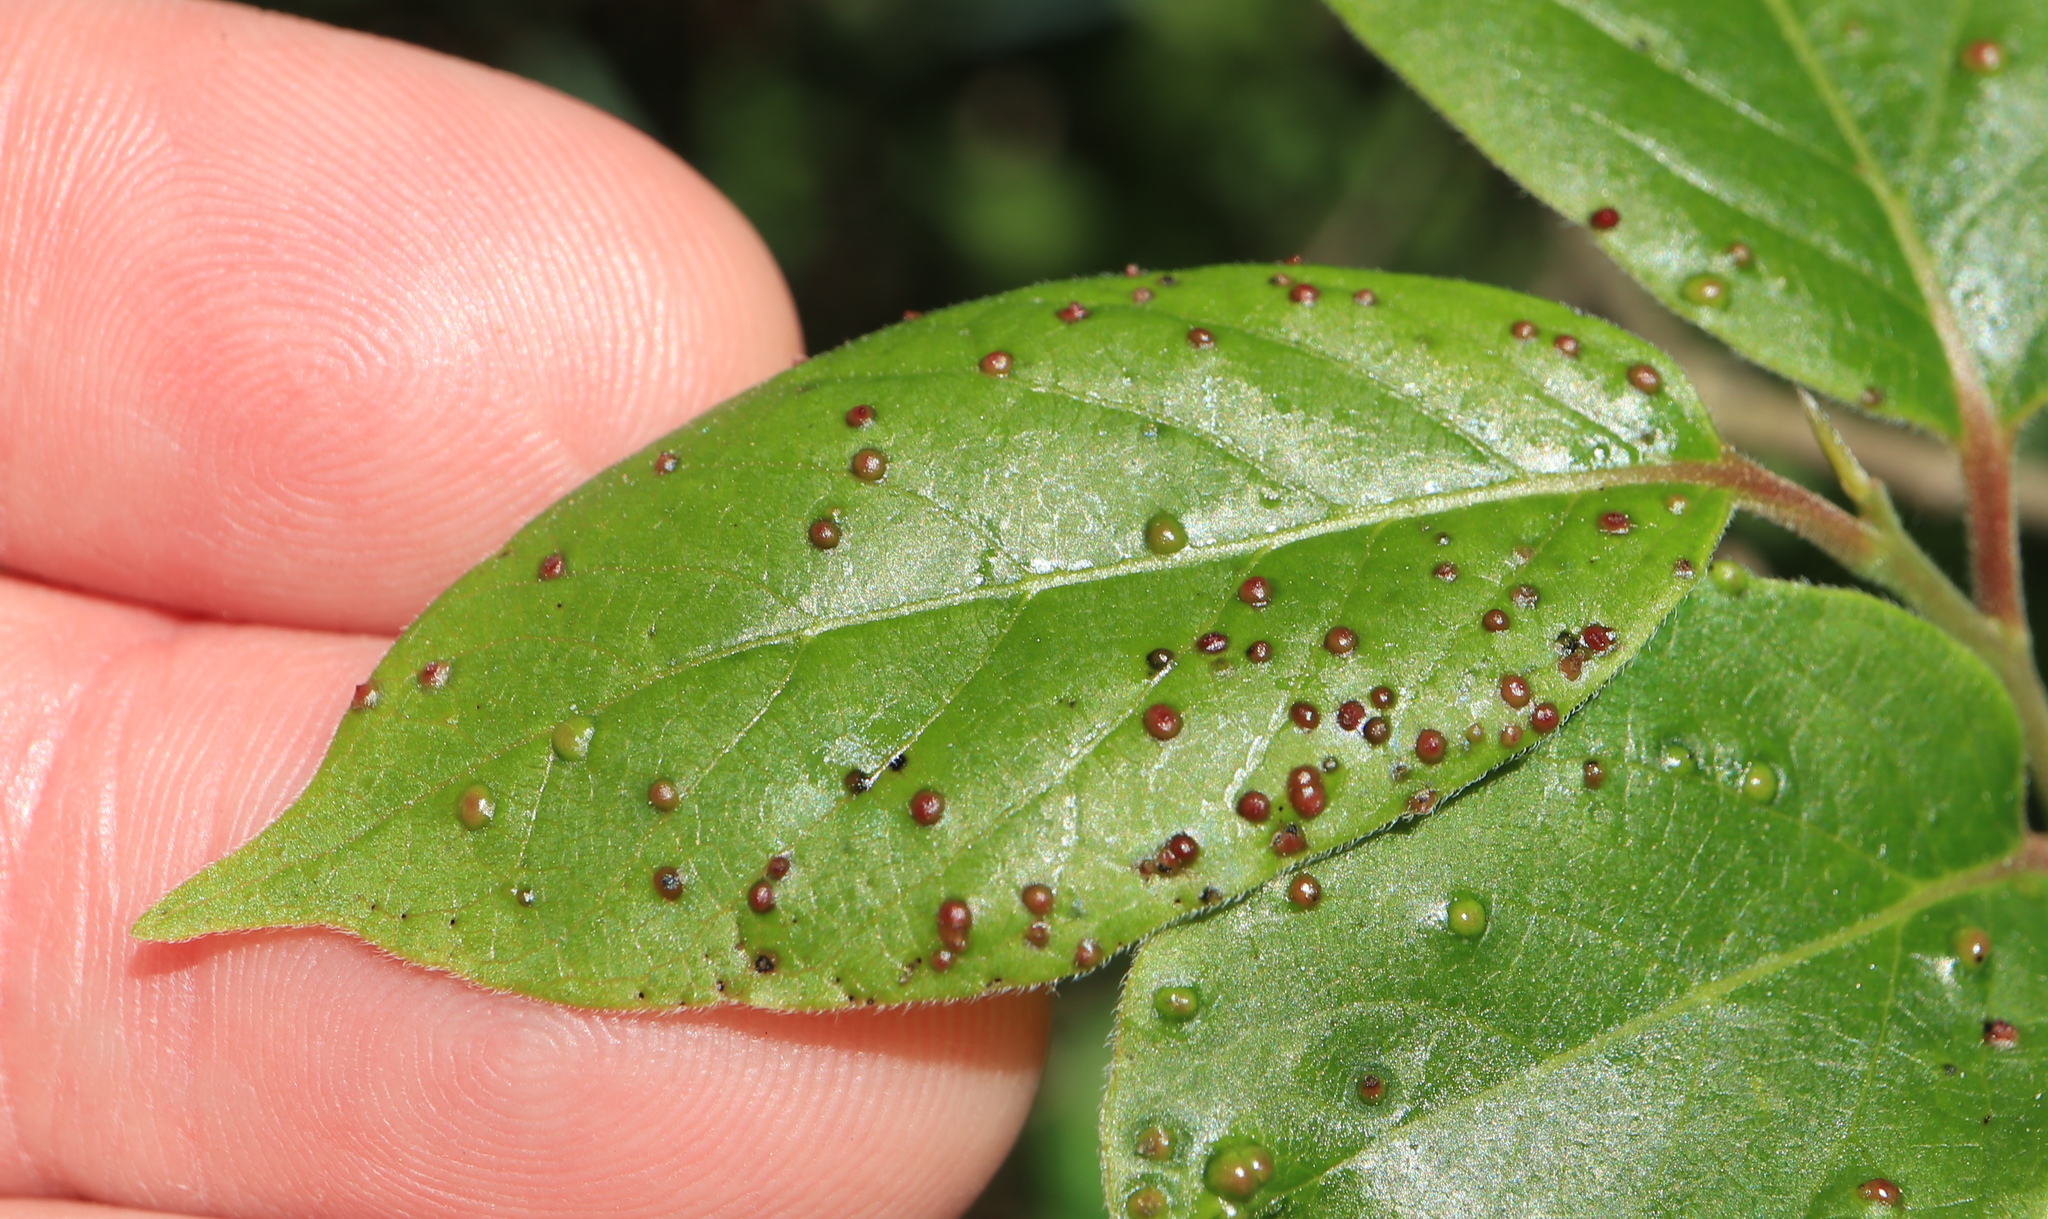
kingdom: Animalia
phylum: Arthropoda
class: Arachnida
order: Trombidiformes
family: Eriophyidae
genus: Aceria
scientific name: Aceria
